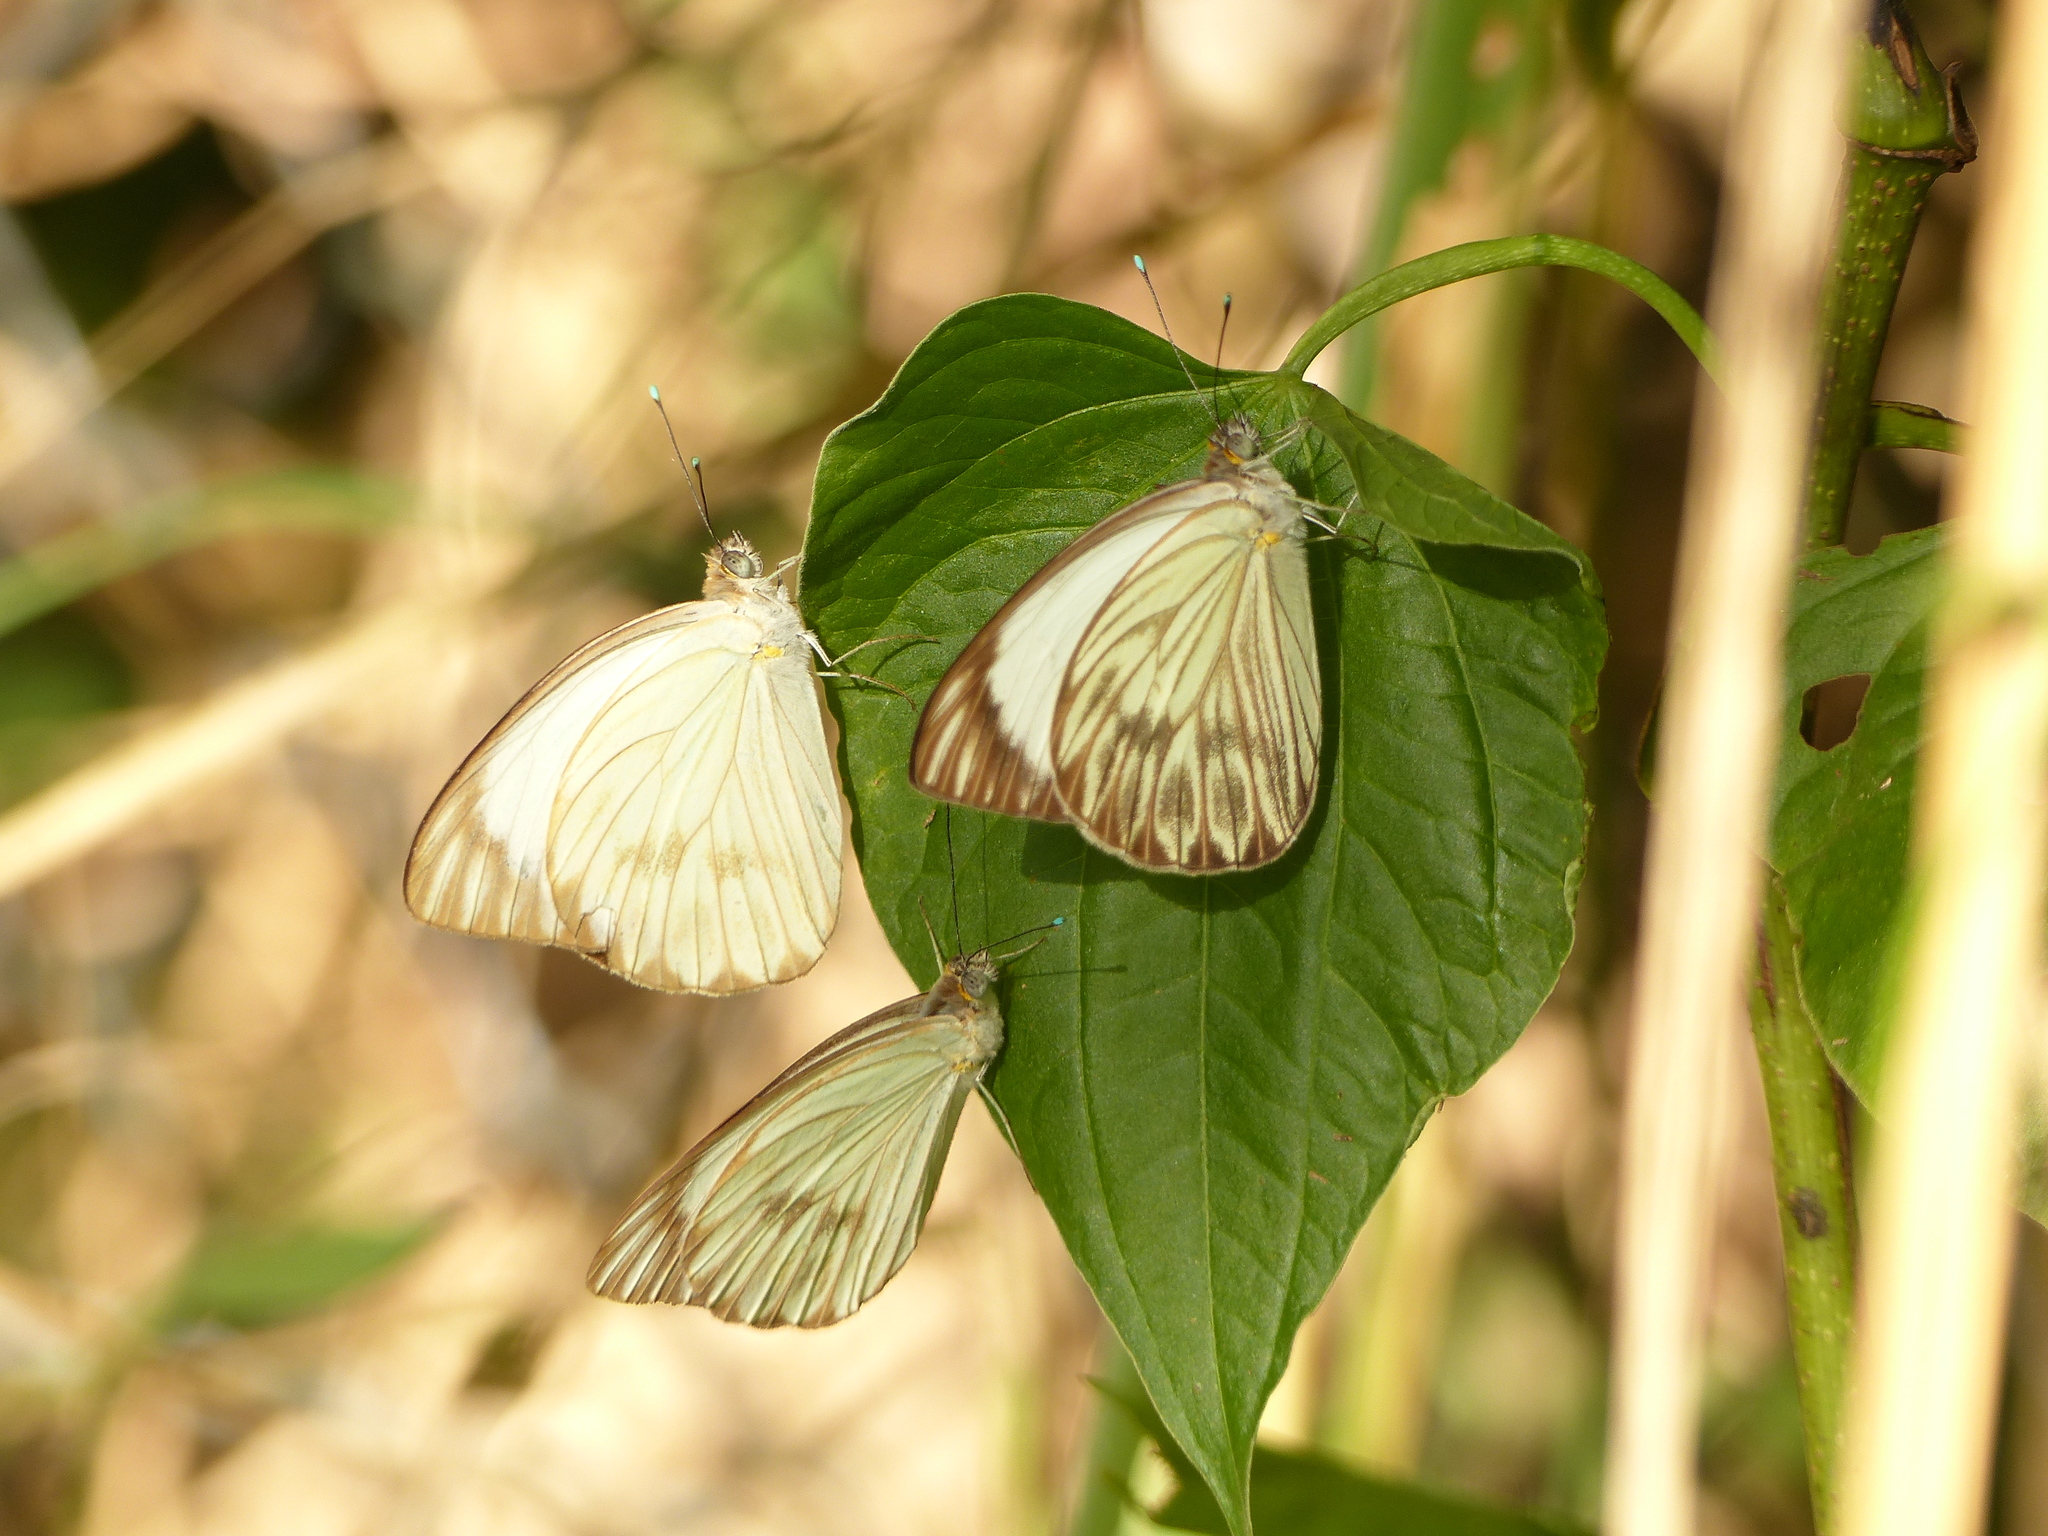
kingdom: Animalia
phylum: Arthropoda
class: Insecta
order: Lepidoptera
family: Pieridae
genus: Ascia
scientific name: Ascia monuste
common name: Great southern white
